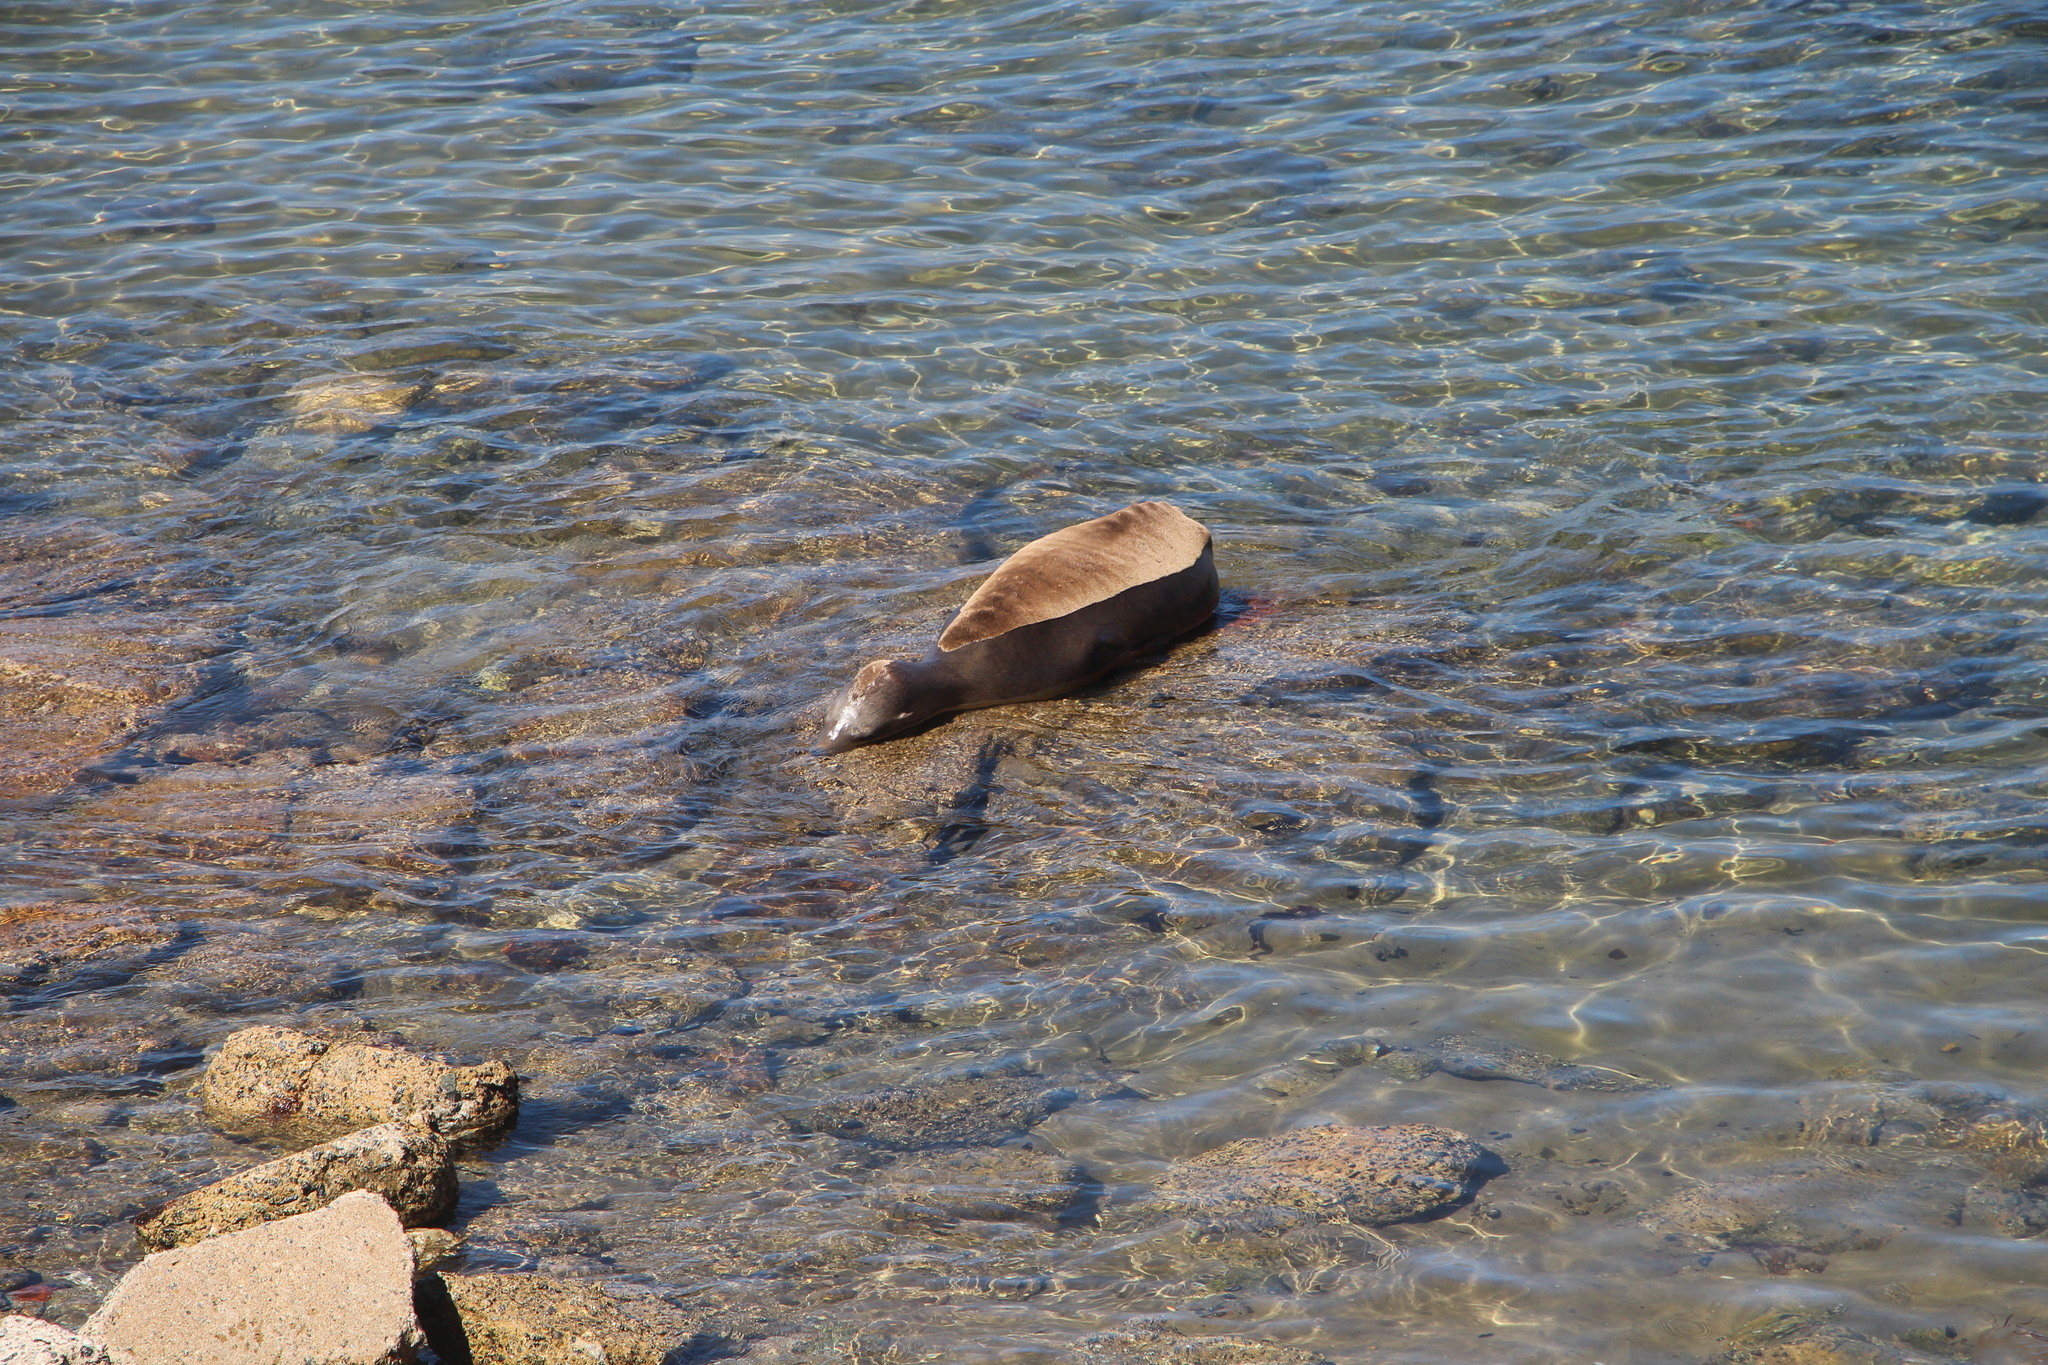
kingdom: Animalia
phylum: Chordata
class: Mammalia
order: Carnivora
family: Otariidae
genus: Zalophus
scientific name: Zalophus californianus
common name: California sea lion
